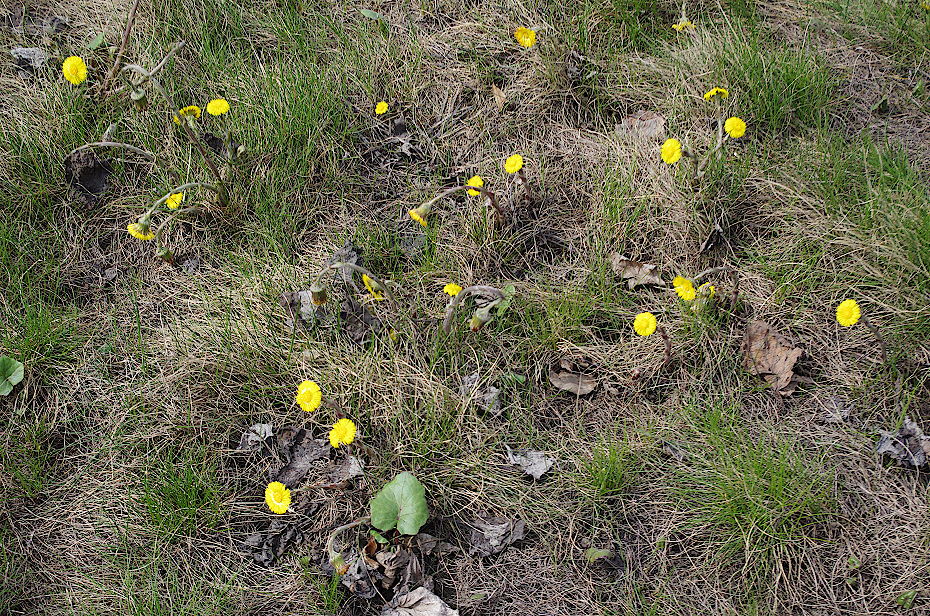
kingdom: Plantae
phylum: Tracheophyta
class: Magnoliopsida
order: Asterales
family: Asteraceae
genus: Tussilago
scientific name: Tussilago farfara
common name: Coltsfoot
